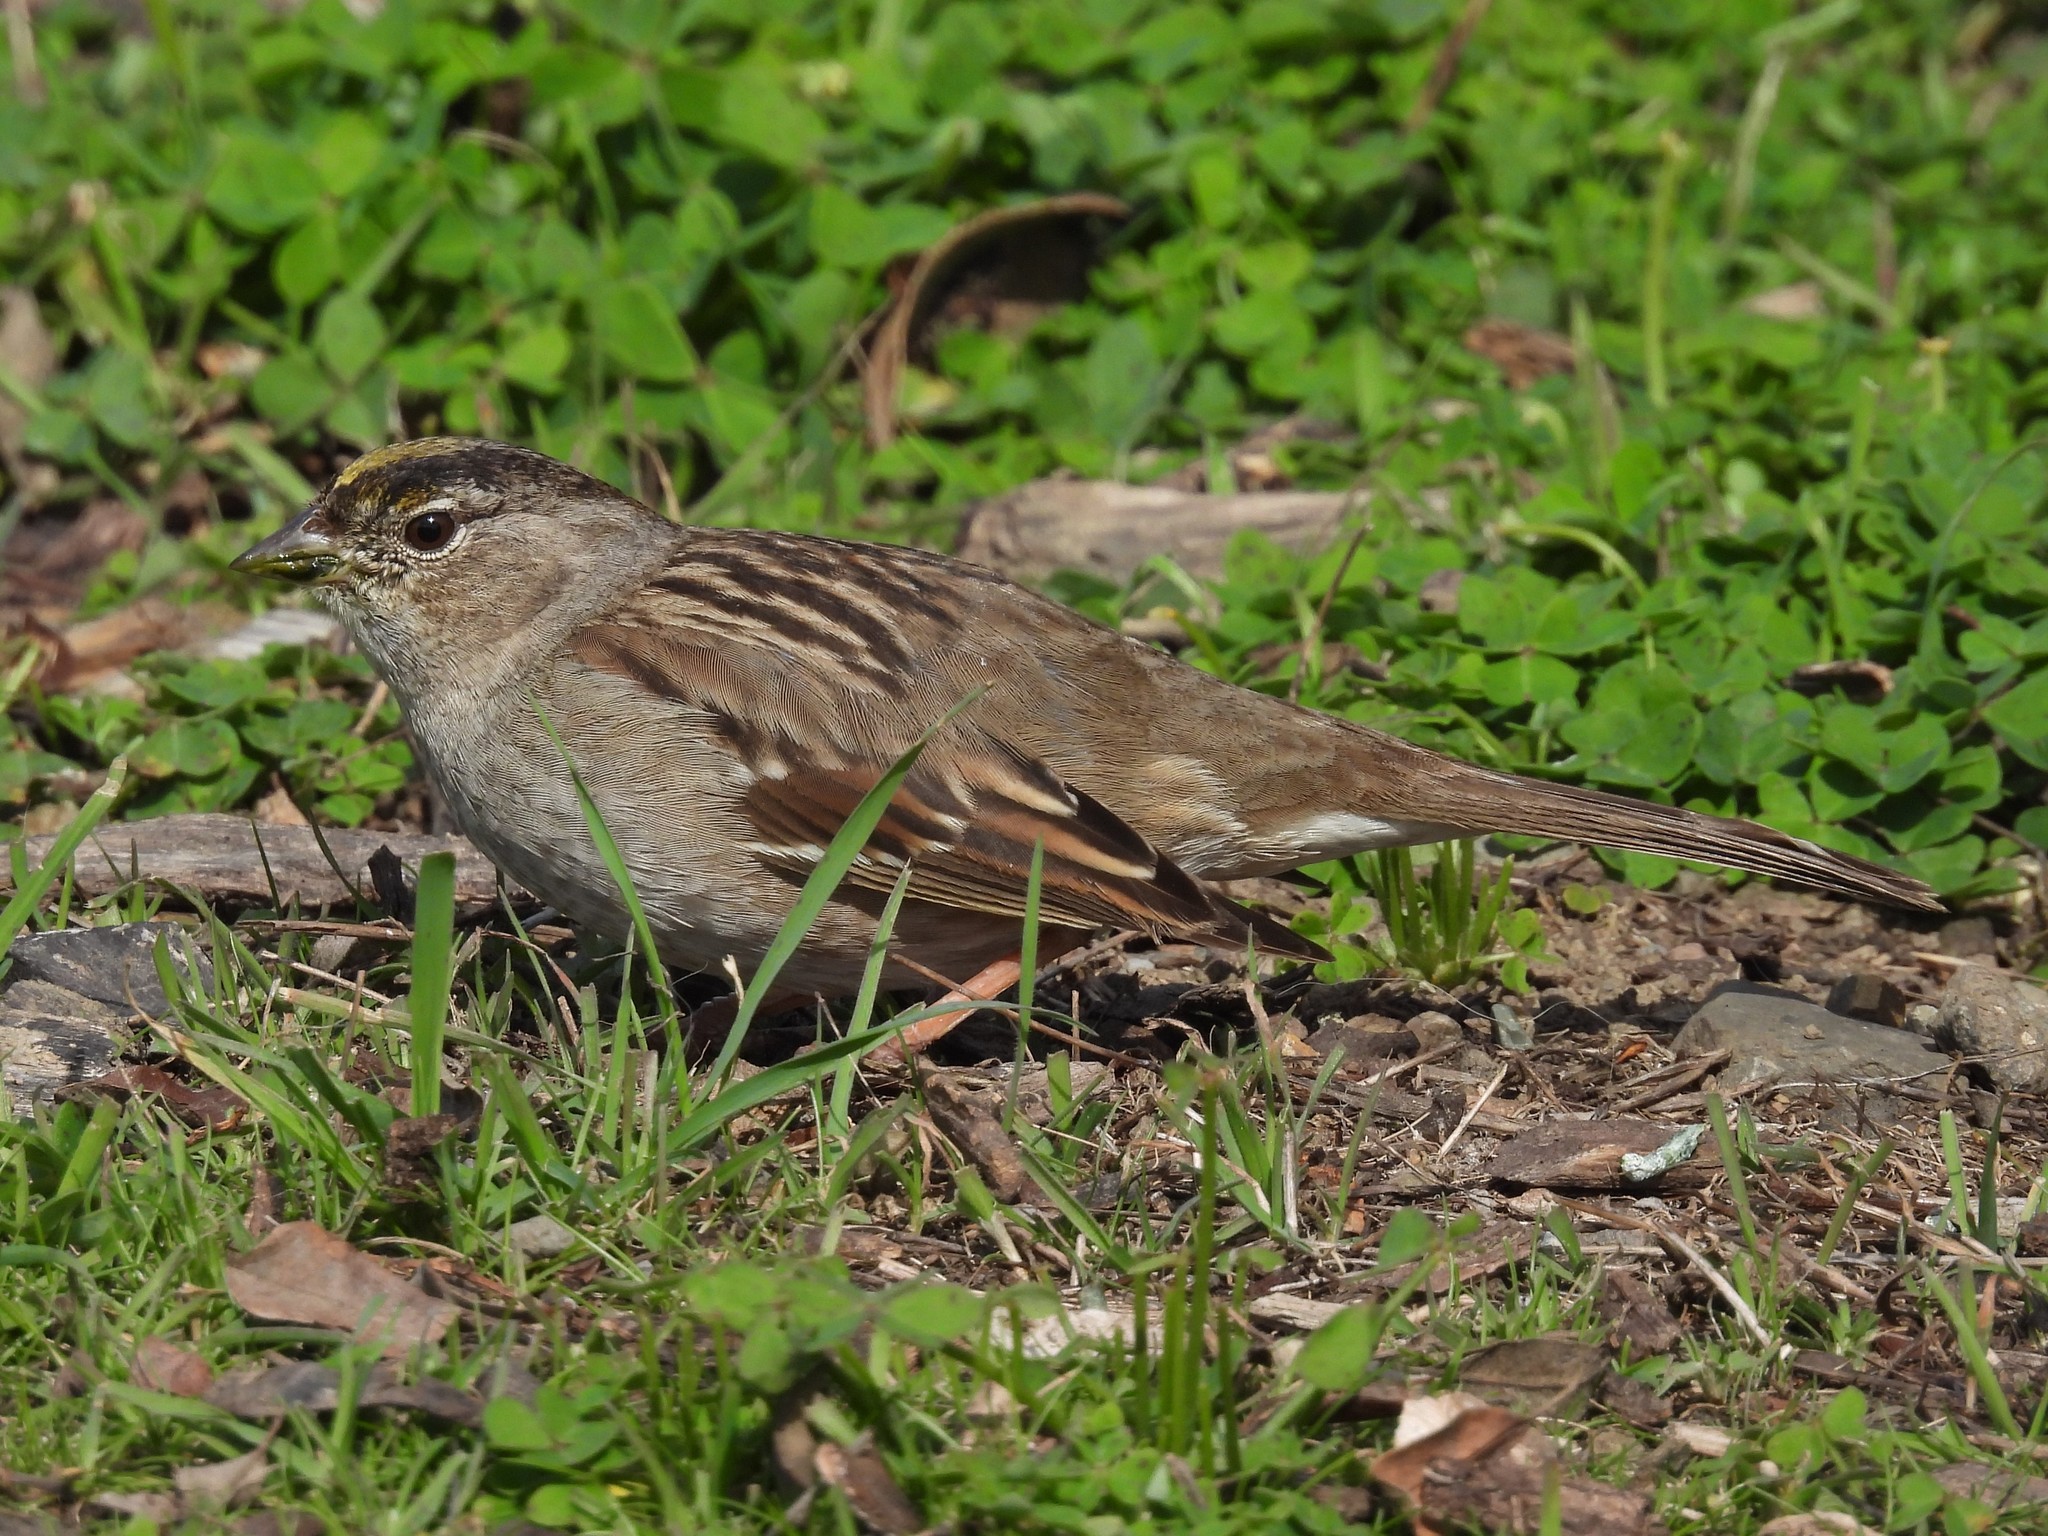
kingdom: Animalia
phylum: Chordata
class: Aves
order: Passeriformes
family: Passerellidae
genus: Zonotrichia
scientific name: Zonotrichia atricapilla
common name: Golden-crowned sparrow
